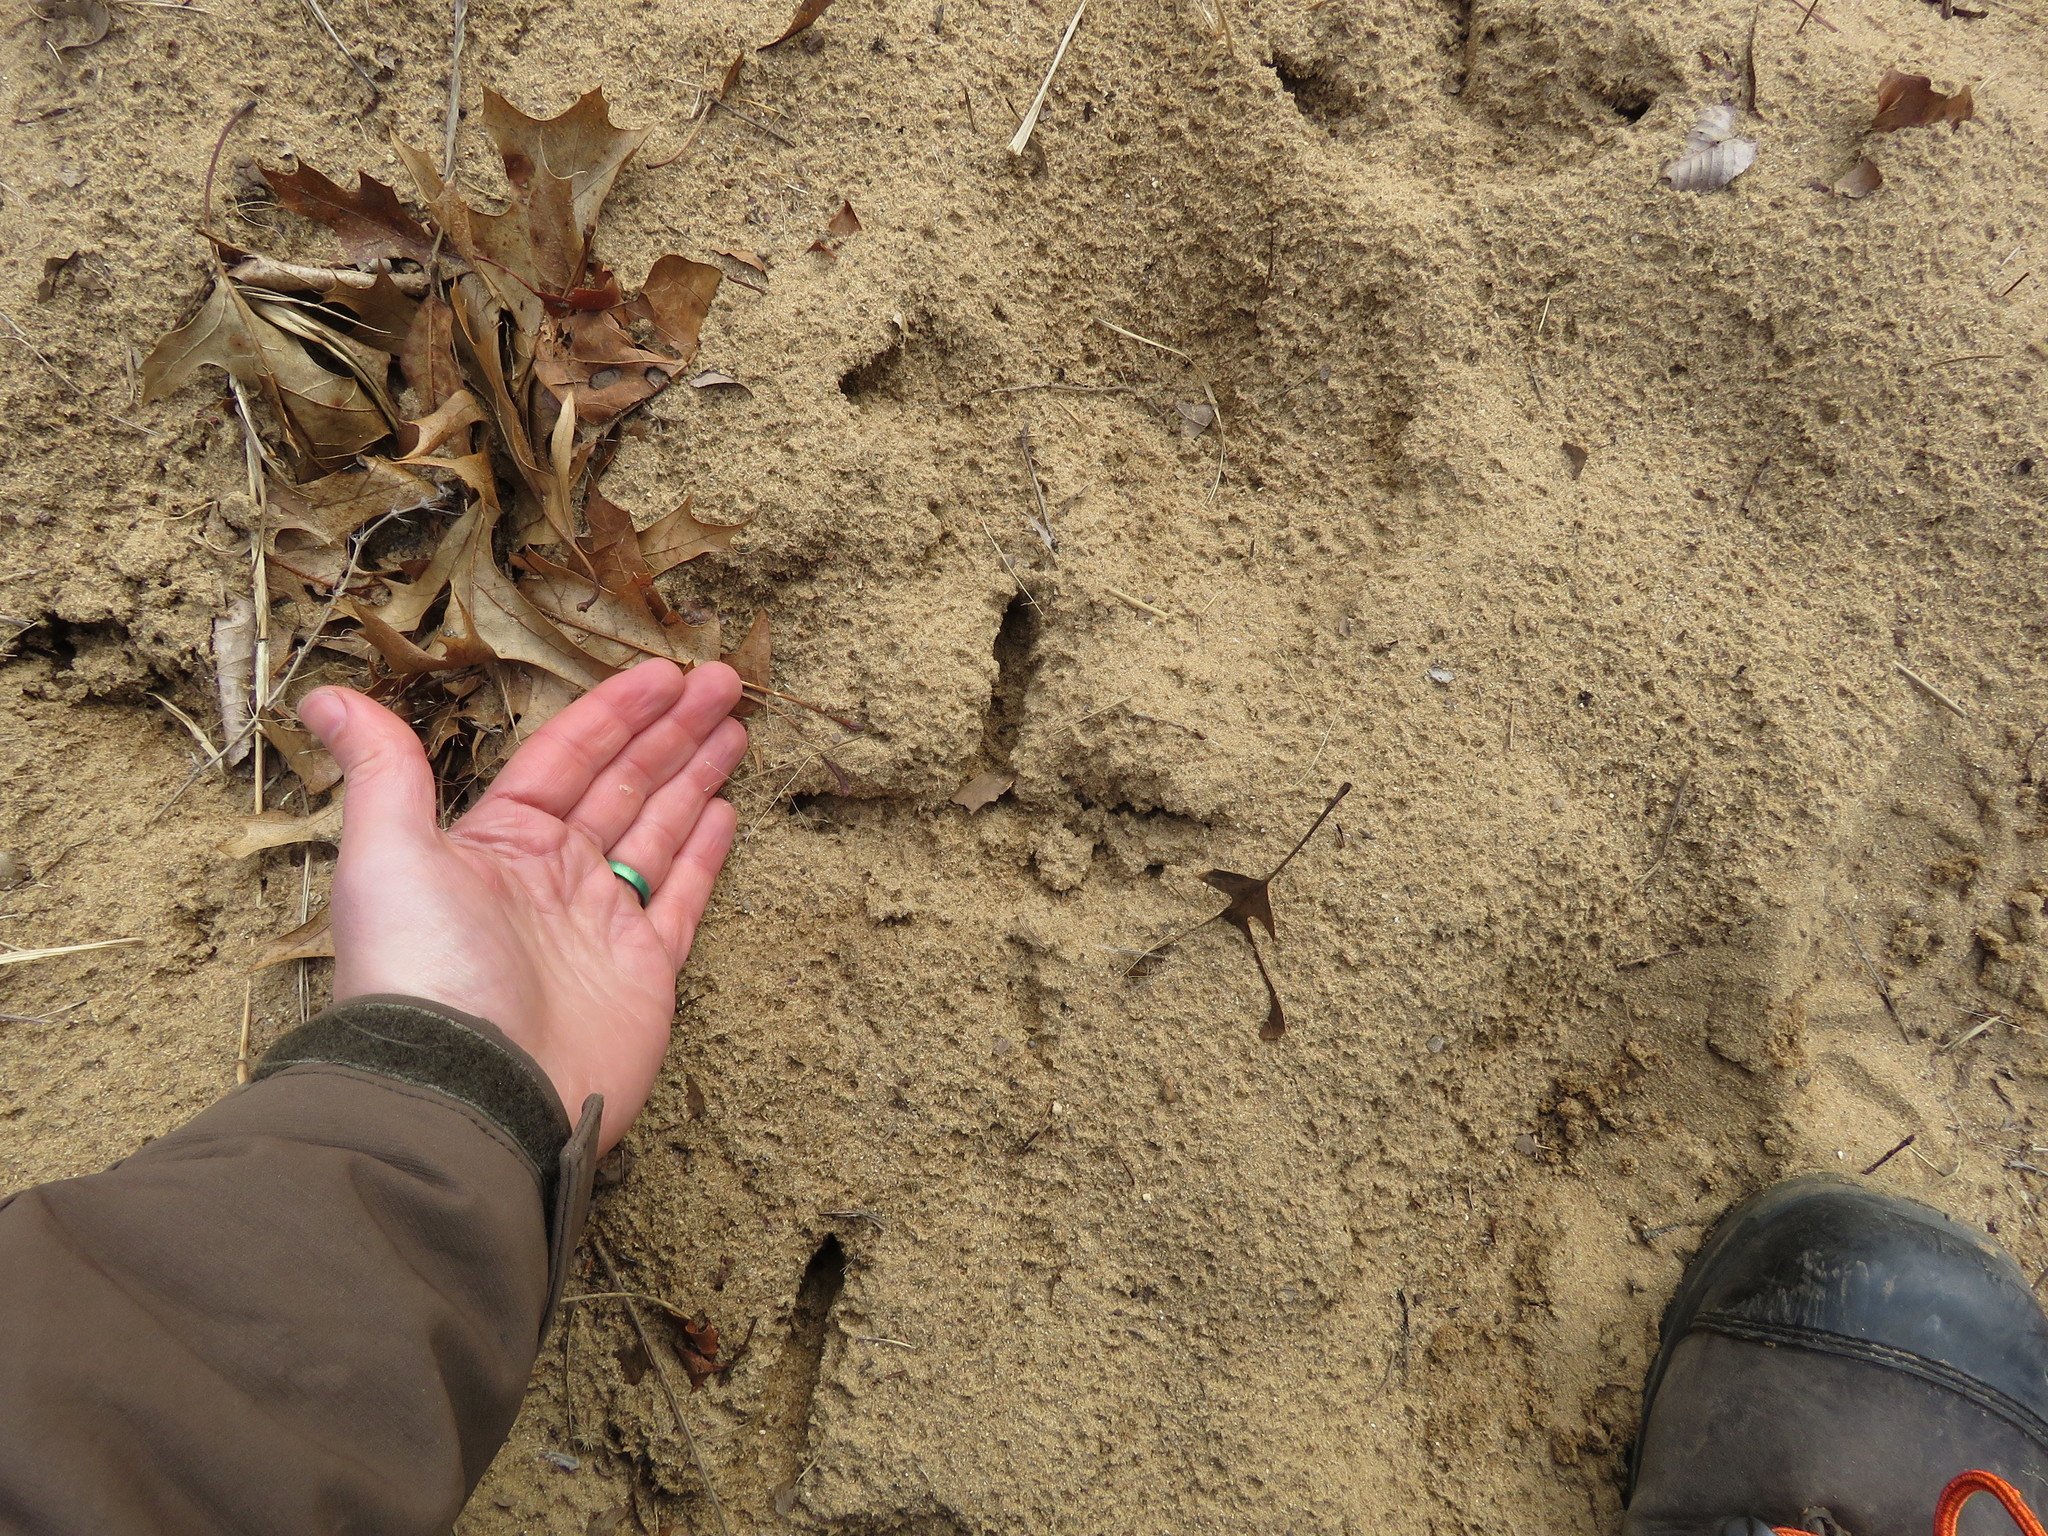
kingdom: Animalia
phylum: Chordata
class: Aves
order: Galliformes
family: Phasianidae
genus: Meleagris
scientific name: Meleagris gallopavo
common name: Wild turkey
